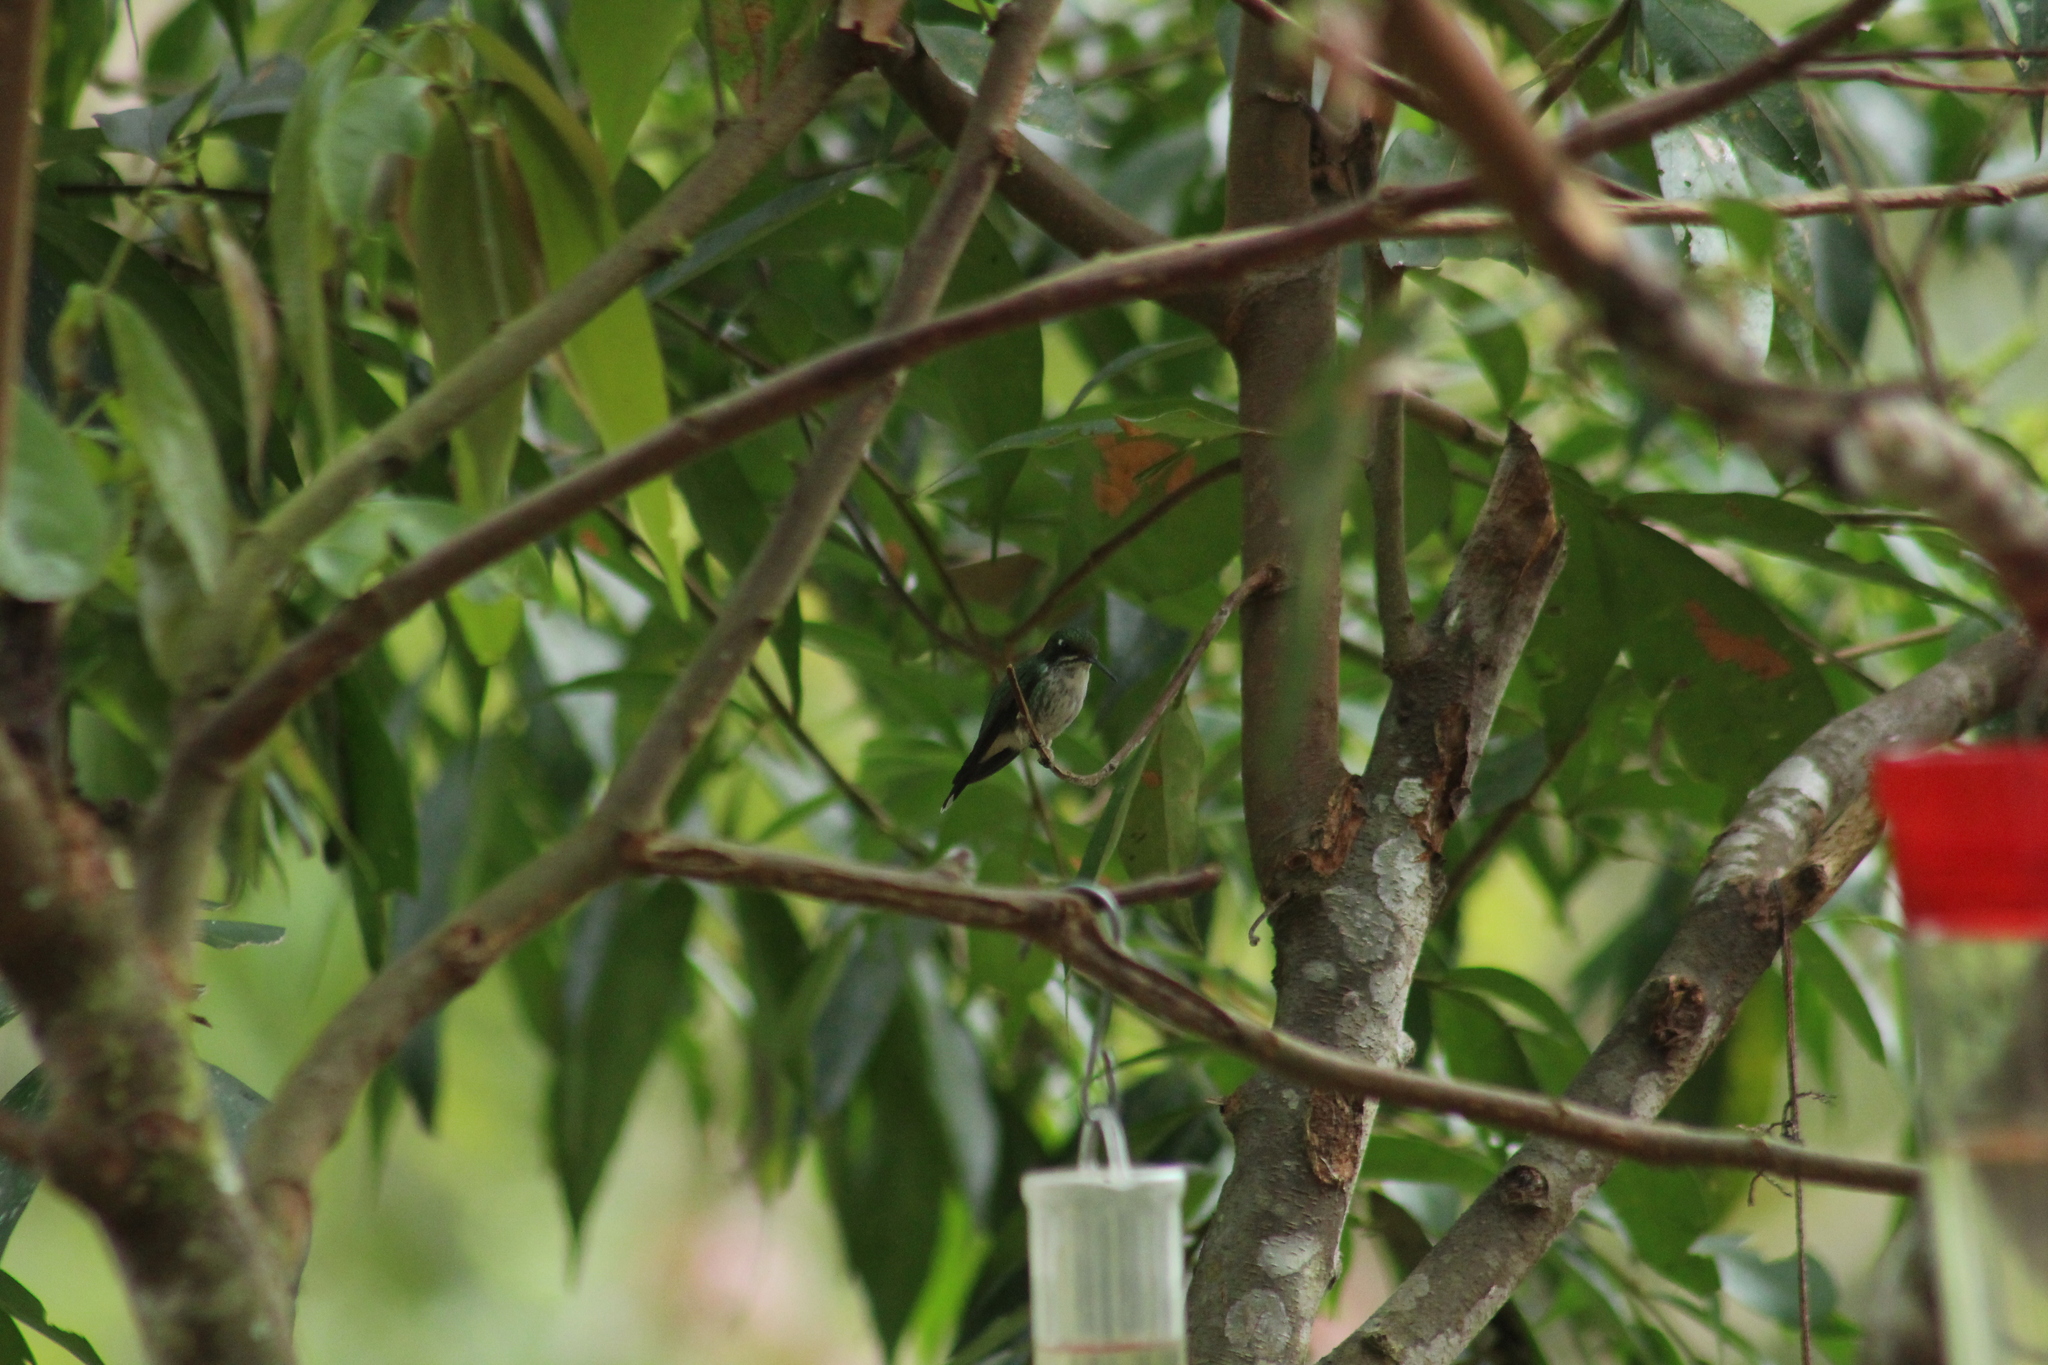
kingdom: Animalia
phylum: Chordata
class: Aves
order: Apodiformes
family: Trochilidae
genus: Ocreatus
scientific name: Ocreatus underwoodii
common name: Booted racket-tail
